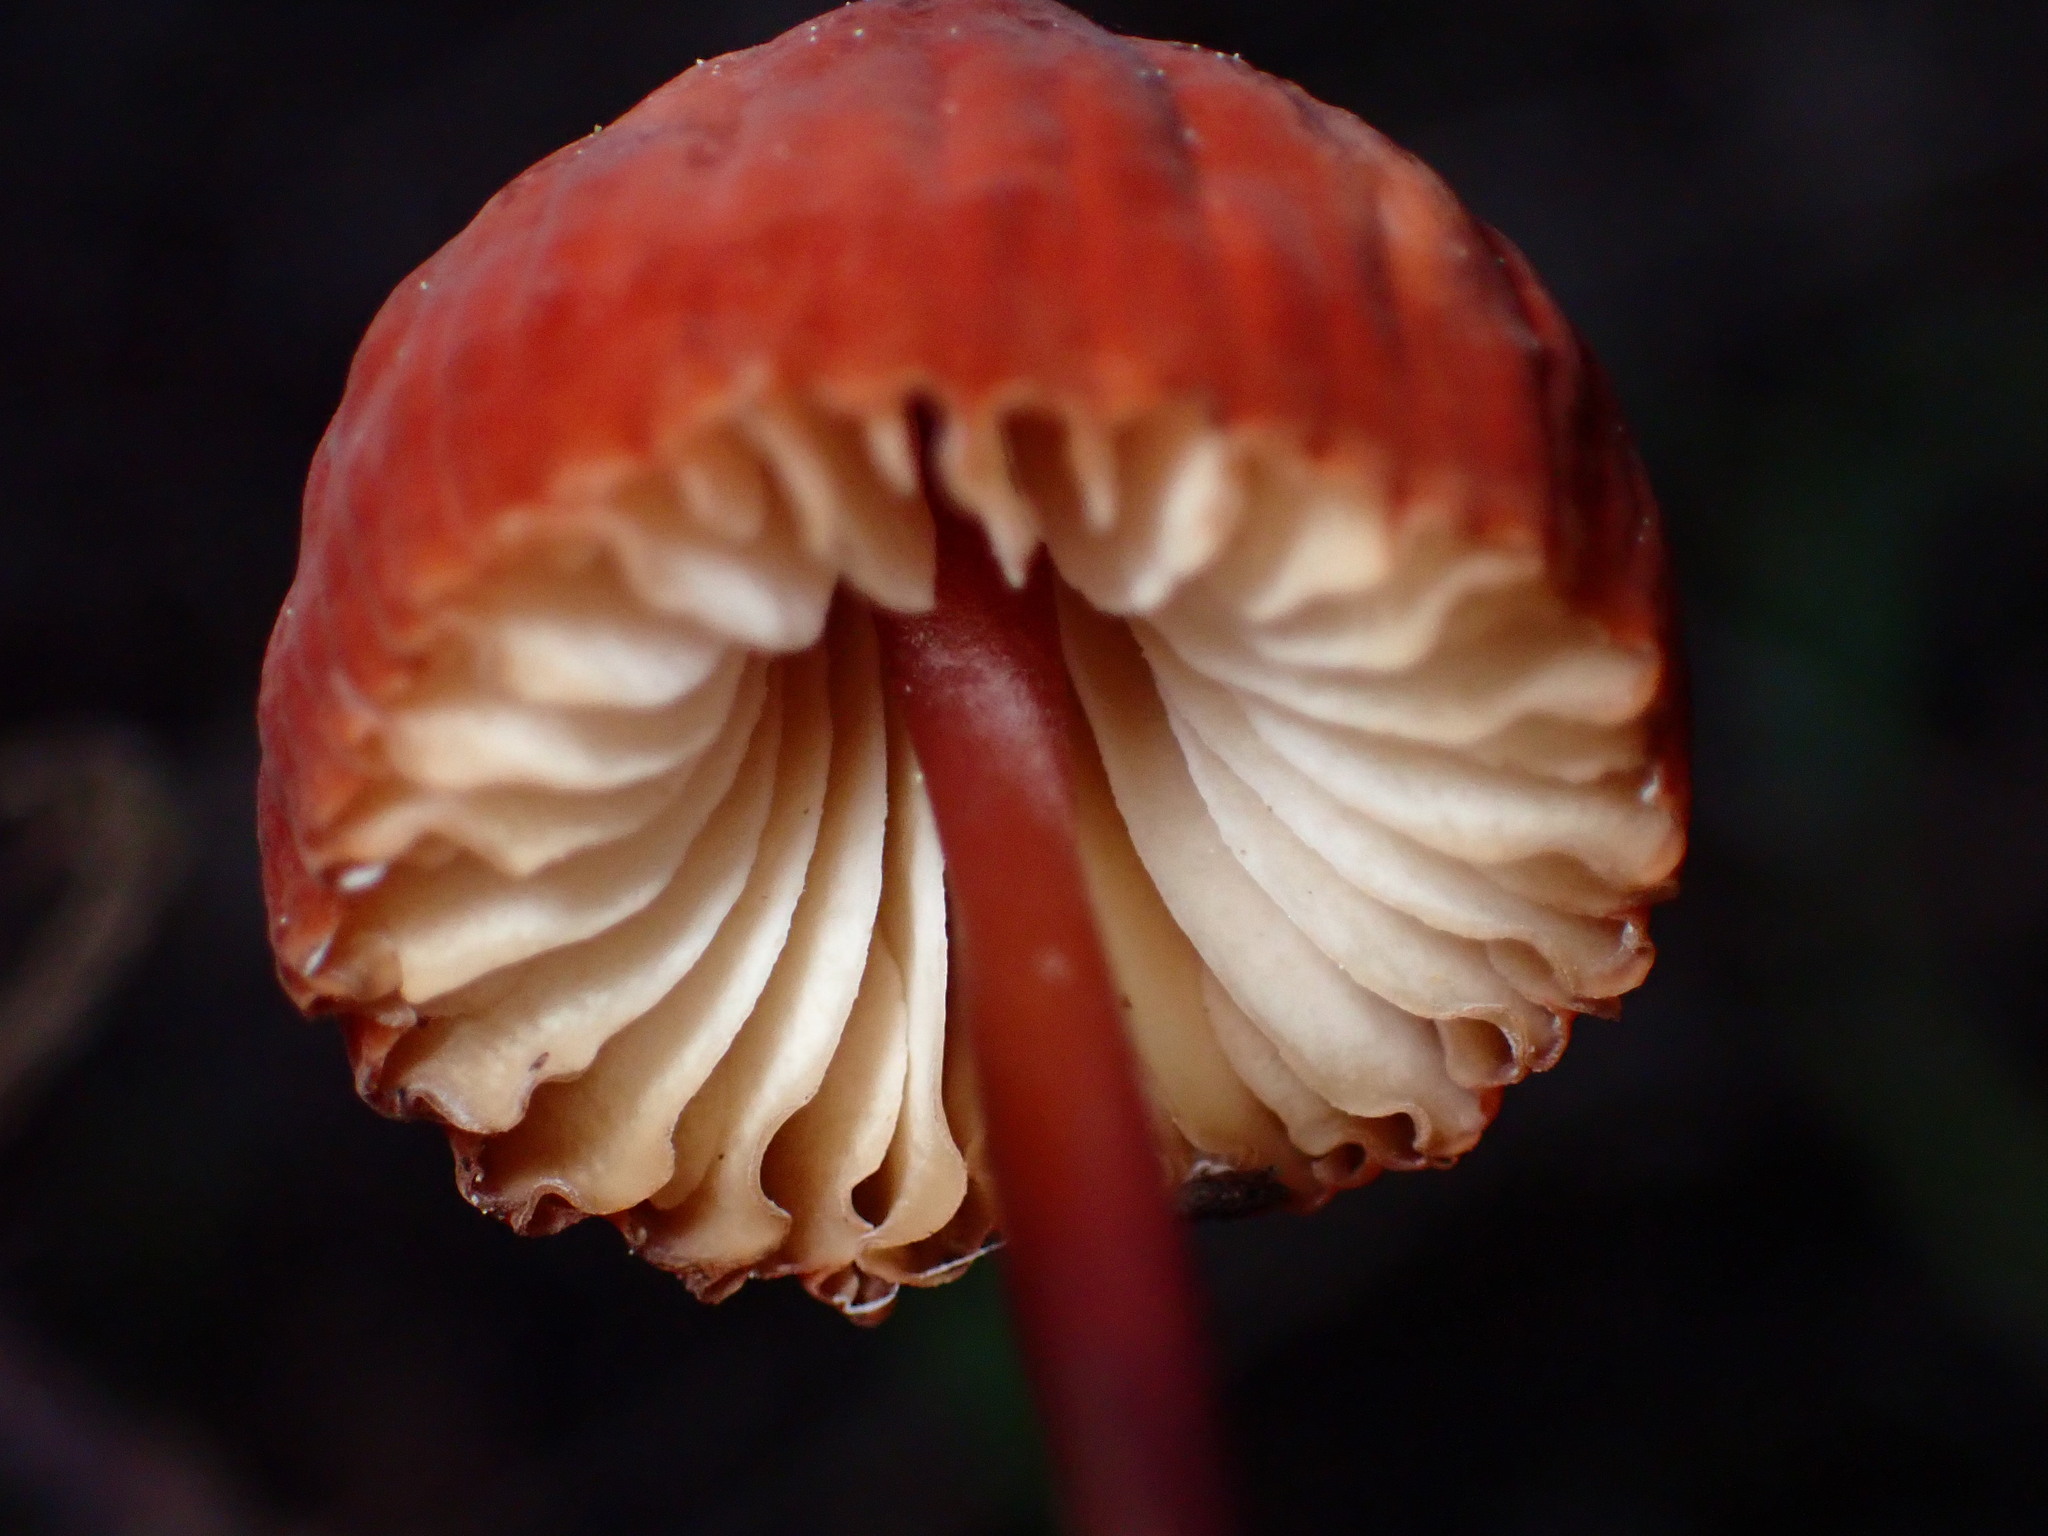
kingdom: Fungi
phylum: Basidiomycota
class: Agaricomycetes
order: Agaricales
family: Marasmiaceae
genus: Marasmius
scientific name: Marasmius plicatulus
